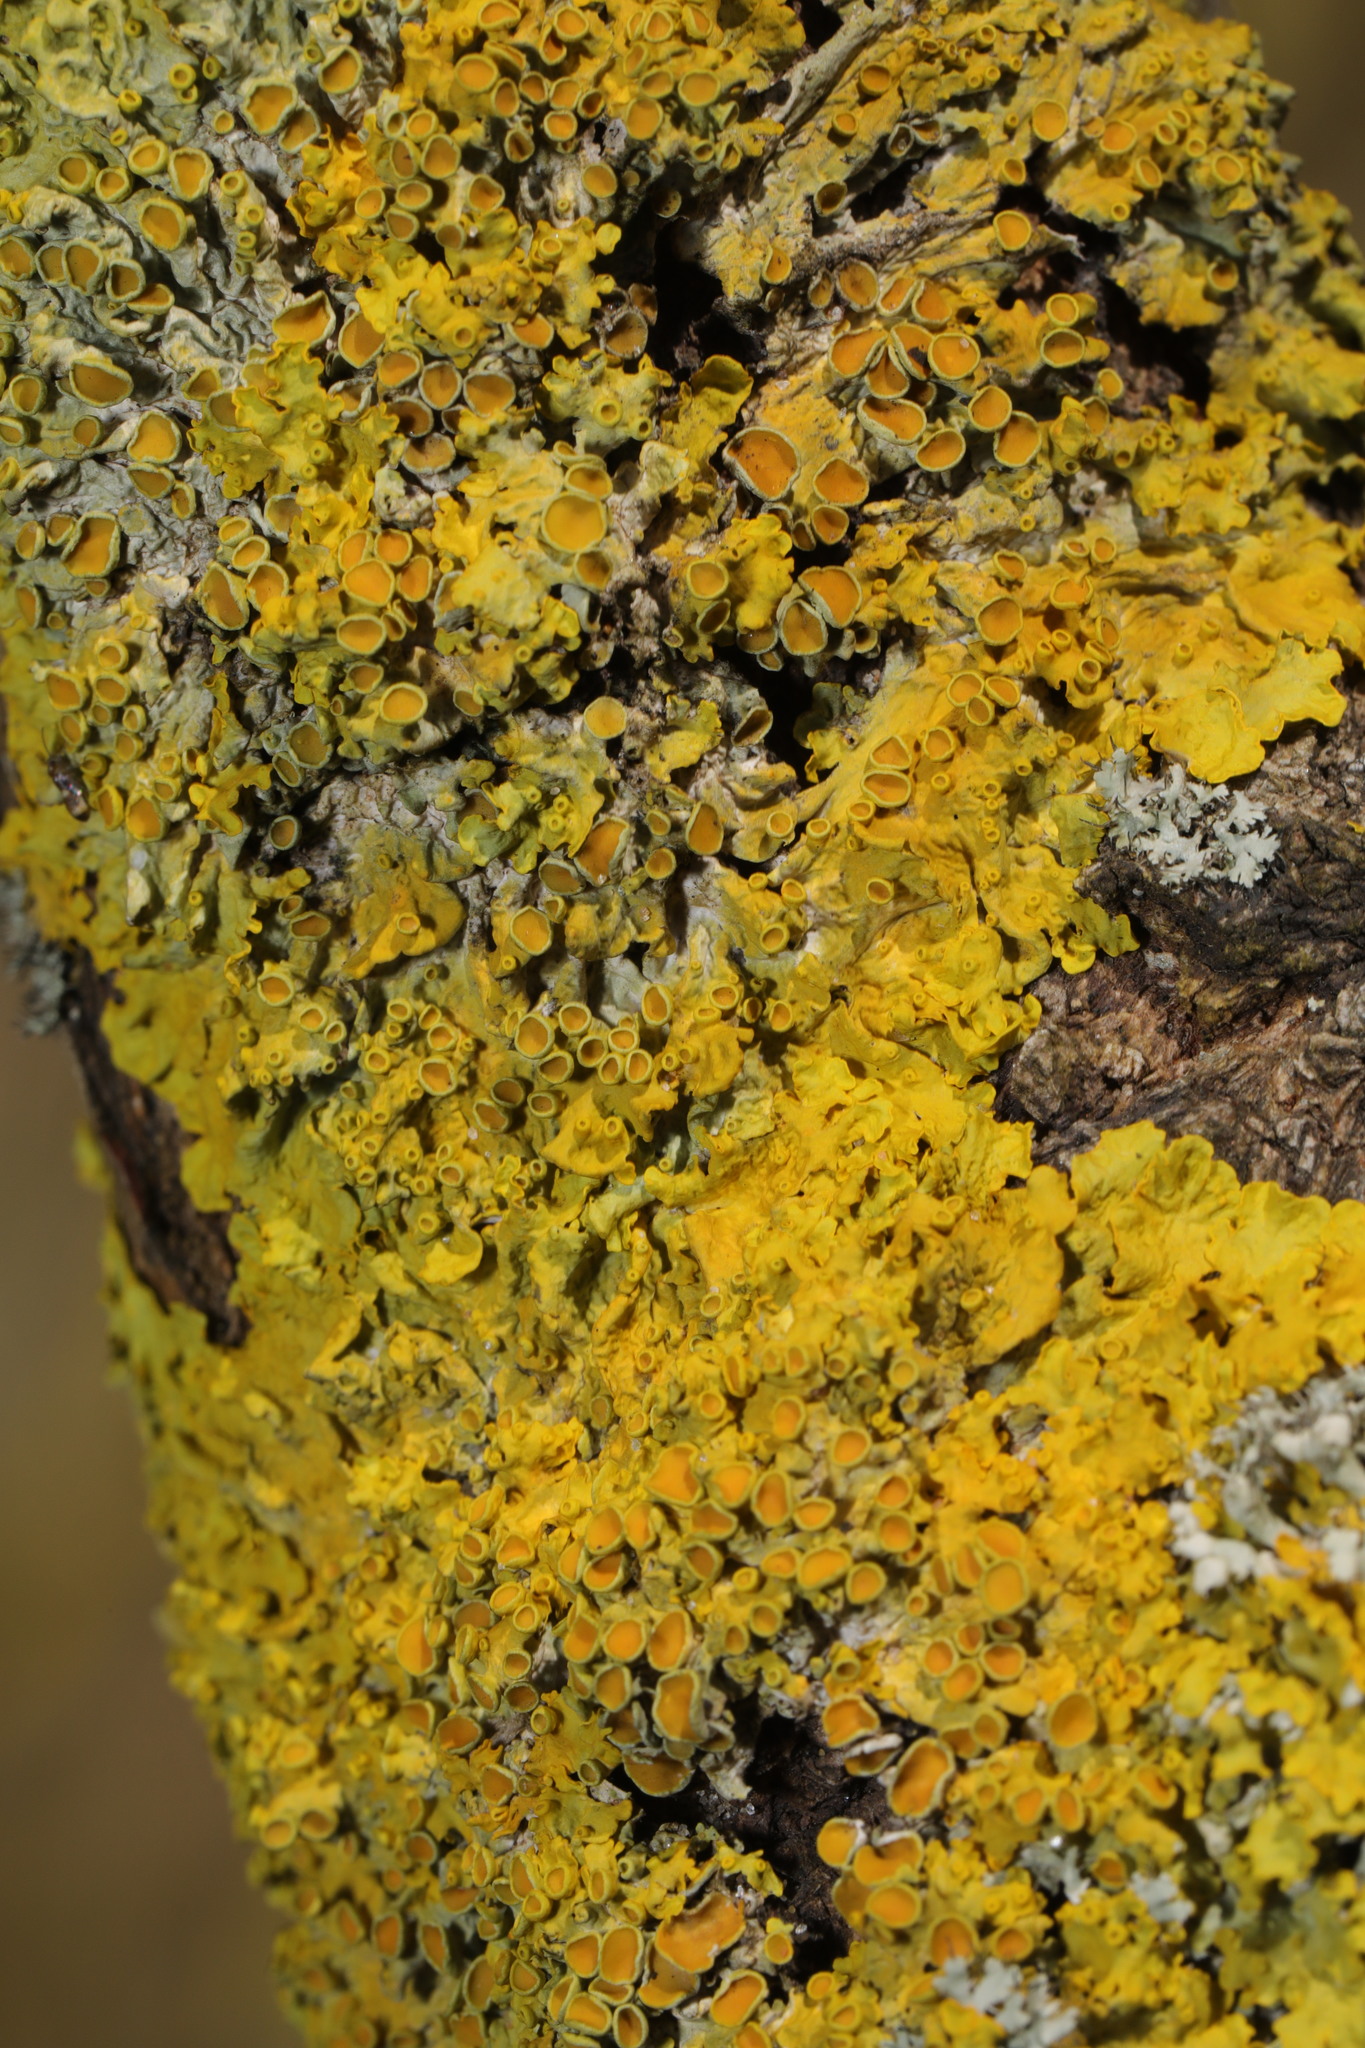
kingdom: Fungi
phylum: Ascomycota
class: Lecanoromycetes
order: Teloschistales
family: Teloschistaceae
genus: Xanthoria
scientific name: Xanthoria parietina
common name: Common orange lichen
